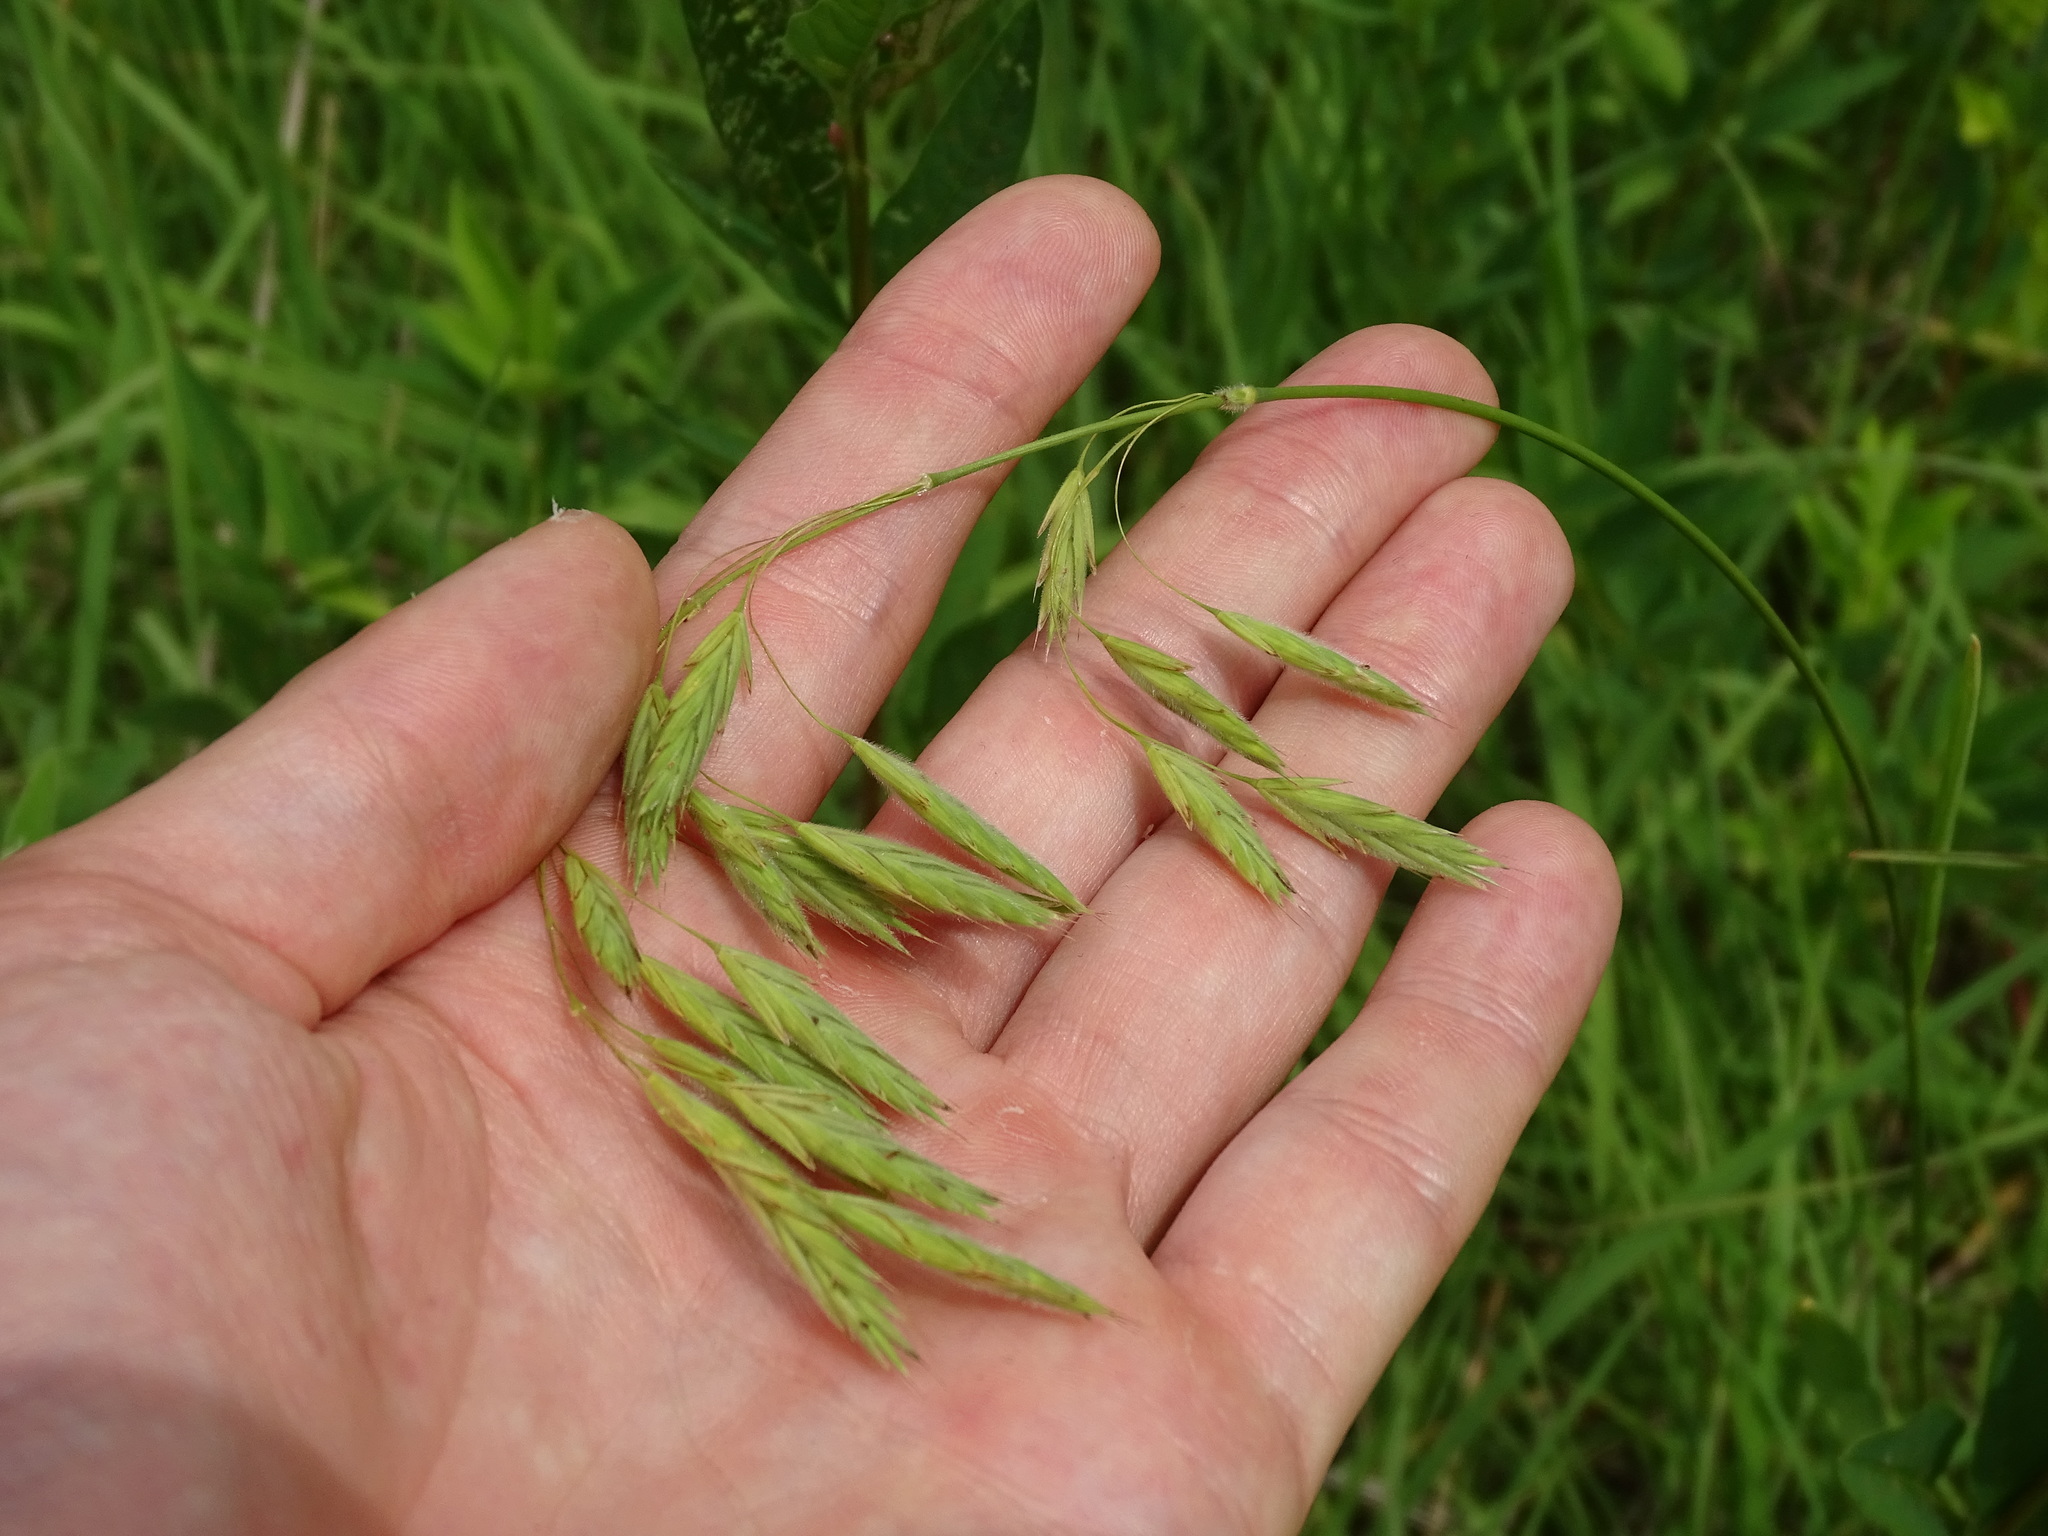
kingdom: Plantae
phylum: Tracheophyta
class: Liliopsida
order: Poales
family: Poaceae
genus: Bromus
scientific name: Bromus kalmii
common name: Kalm brome
